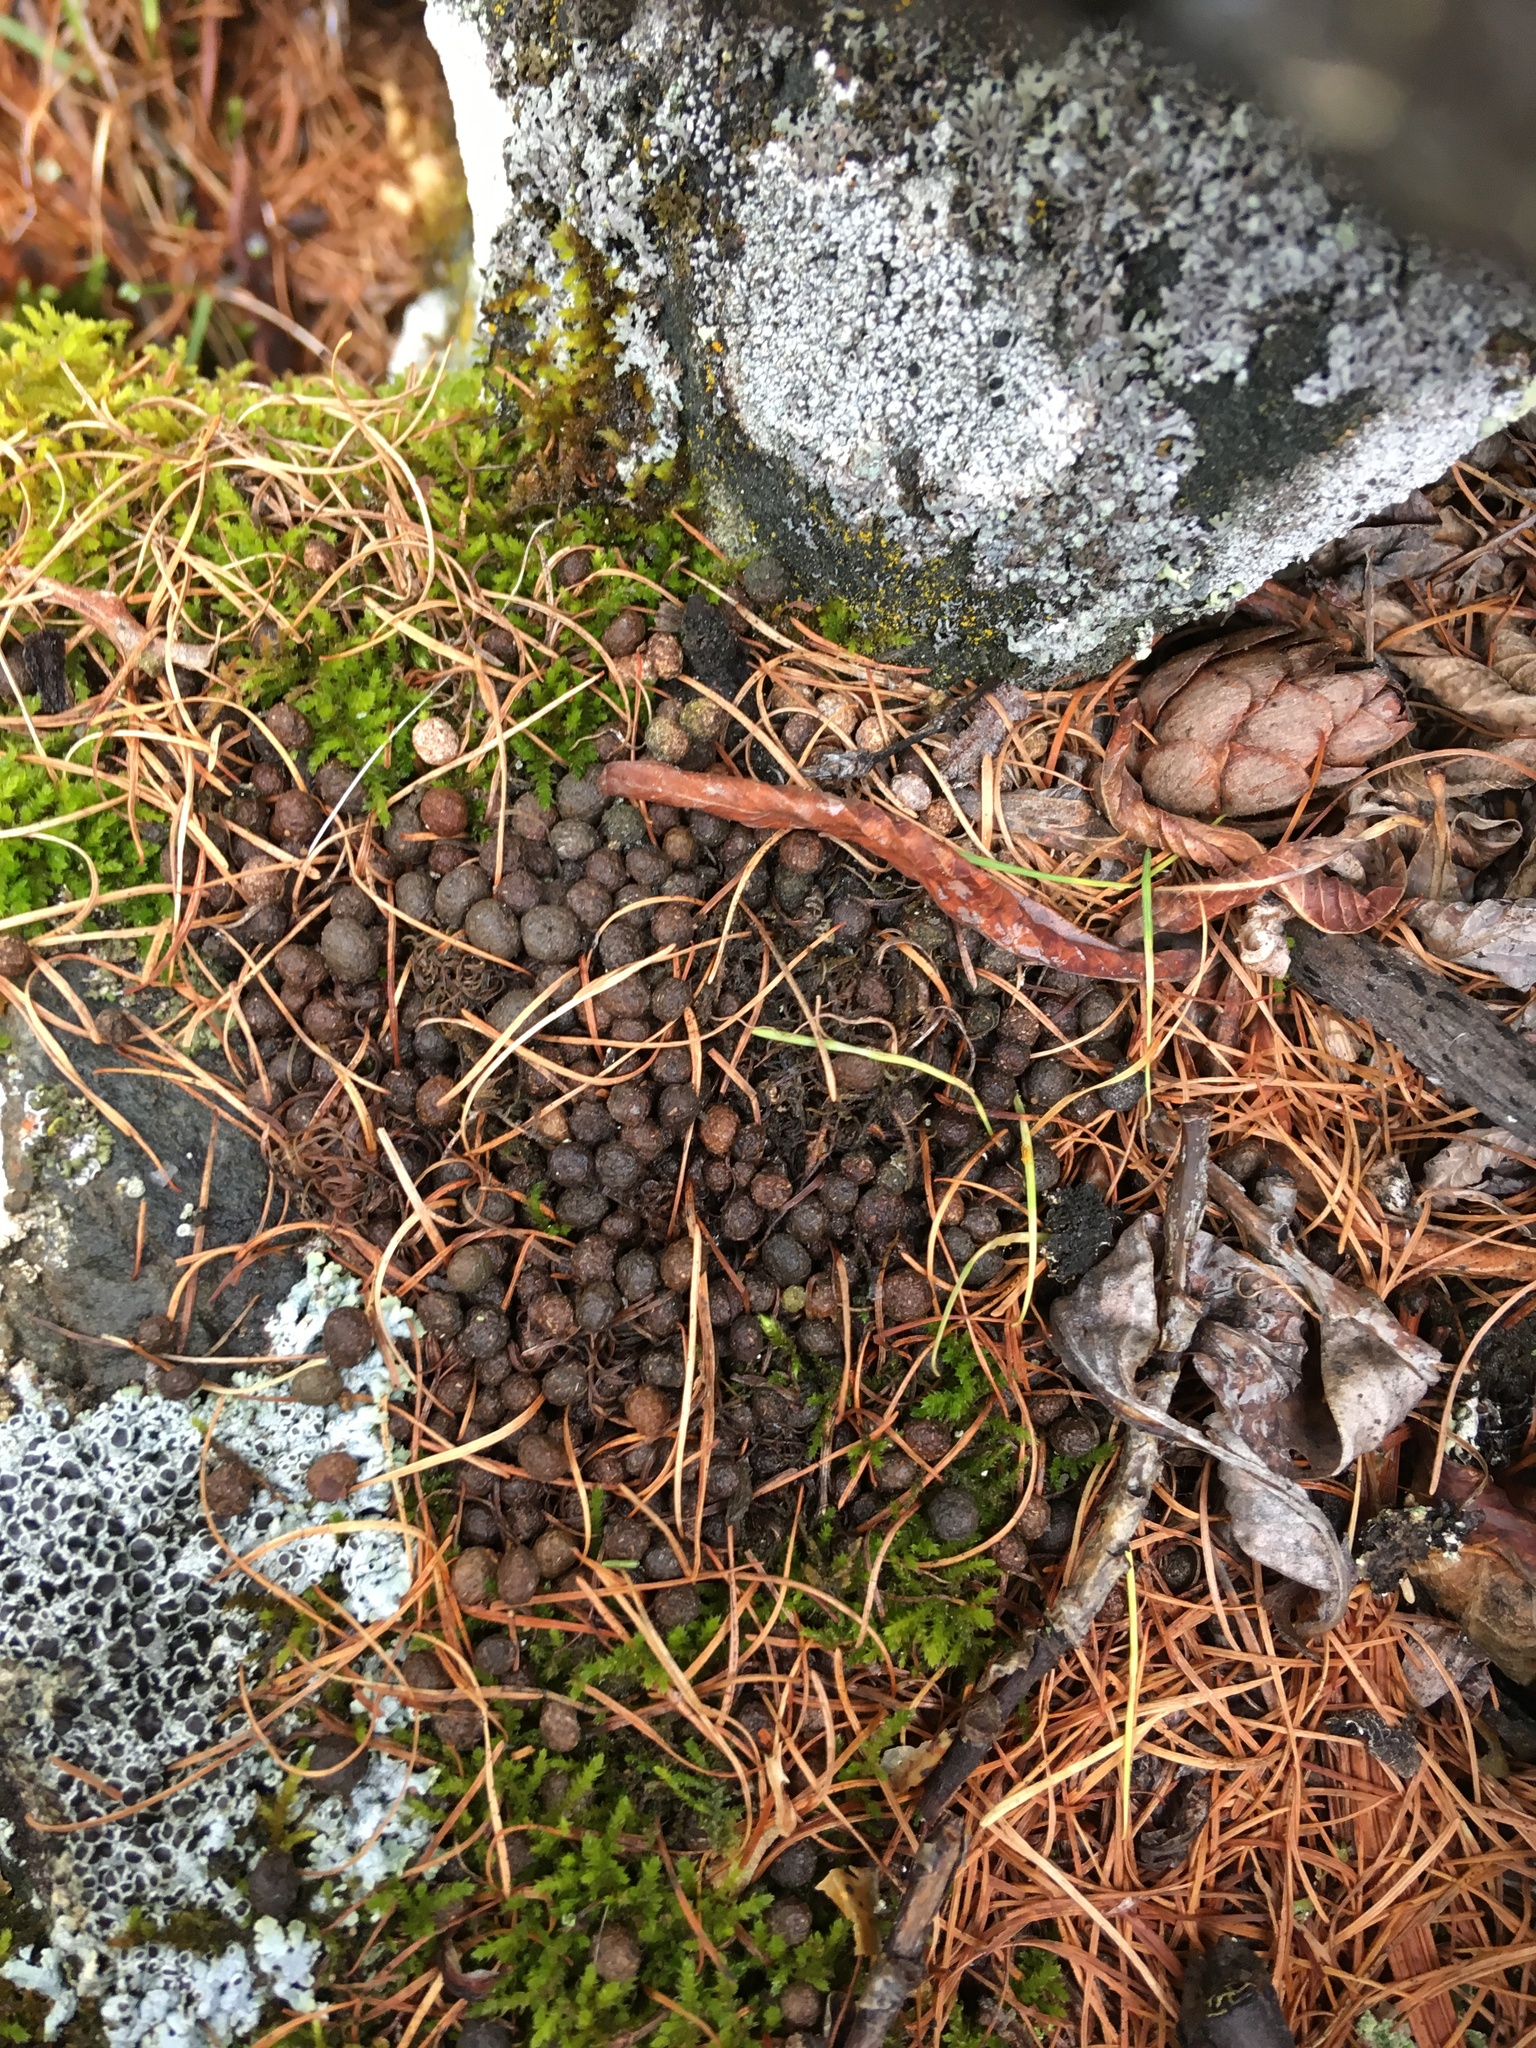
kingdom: Animalia
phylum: Chordata
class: Mammalia
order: Lagomorpha
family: Ochotonidae
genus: Ochotona
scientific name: Ochotona
